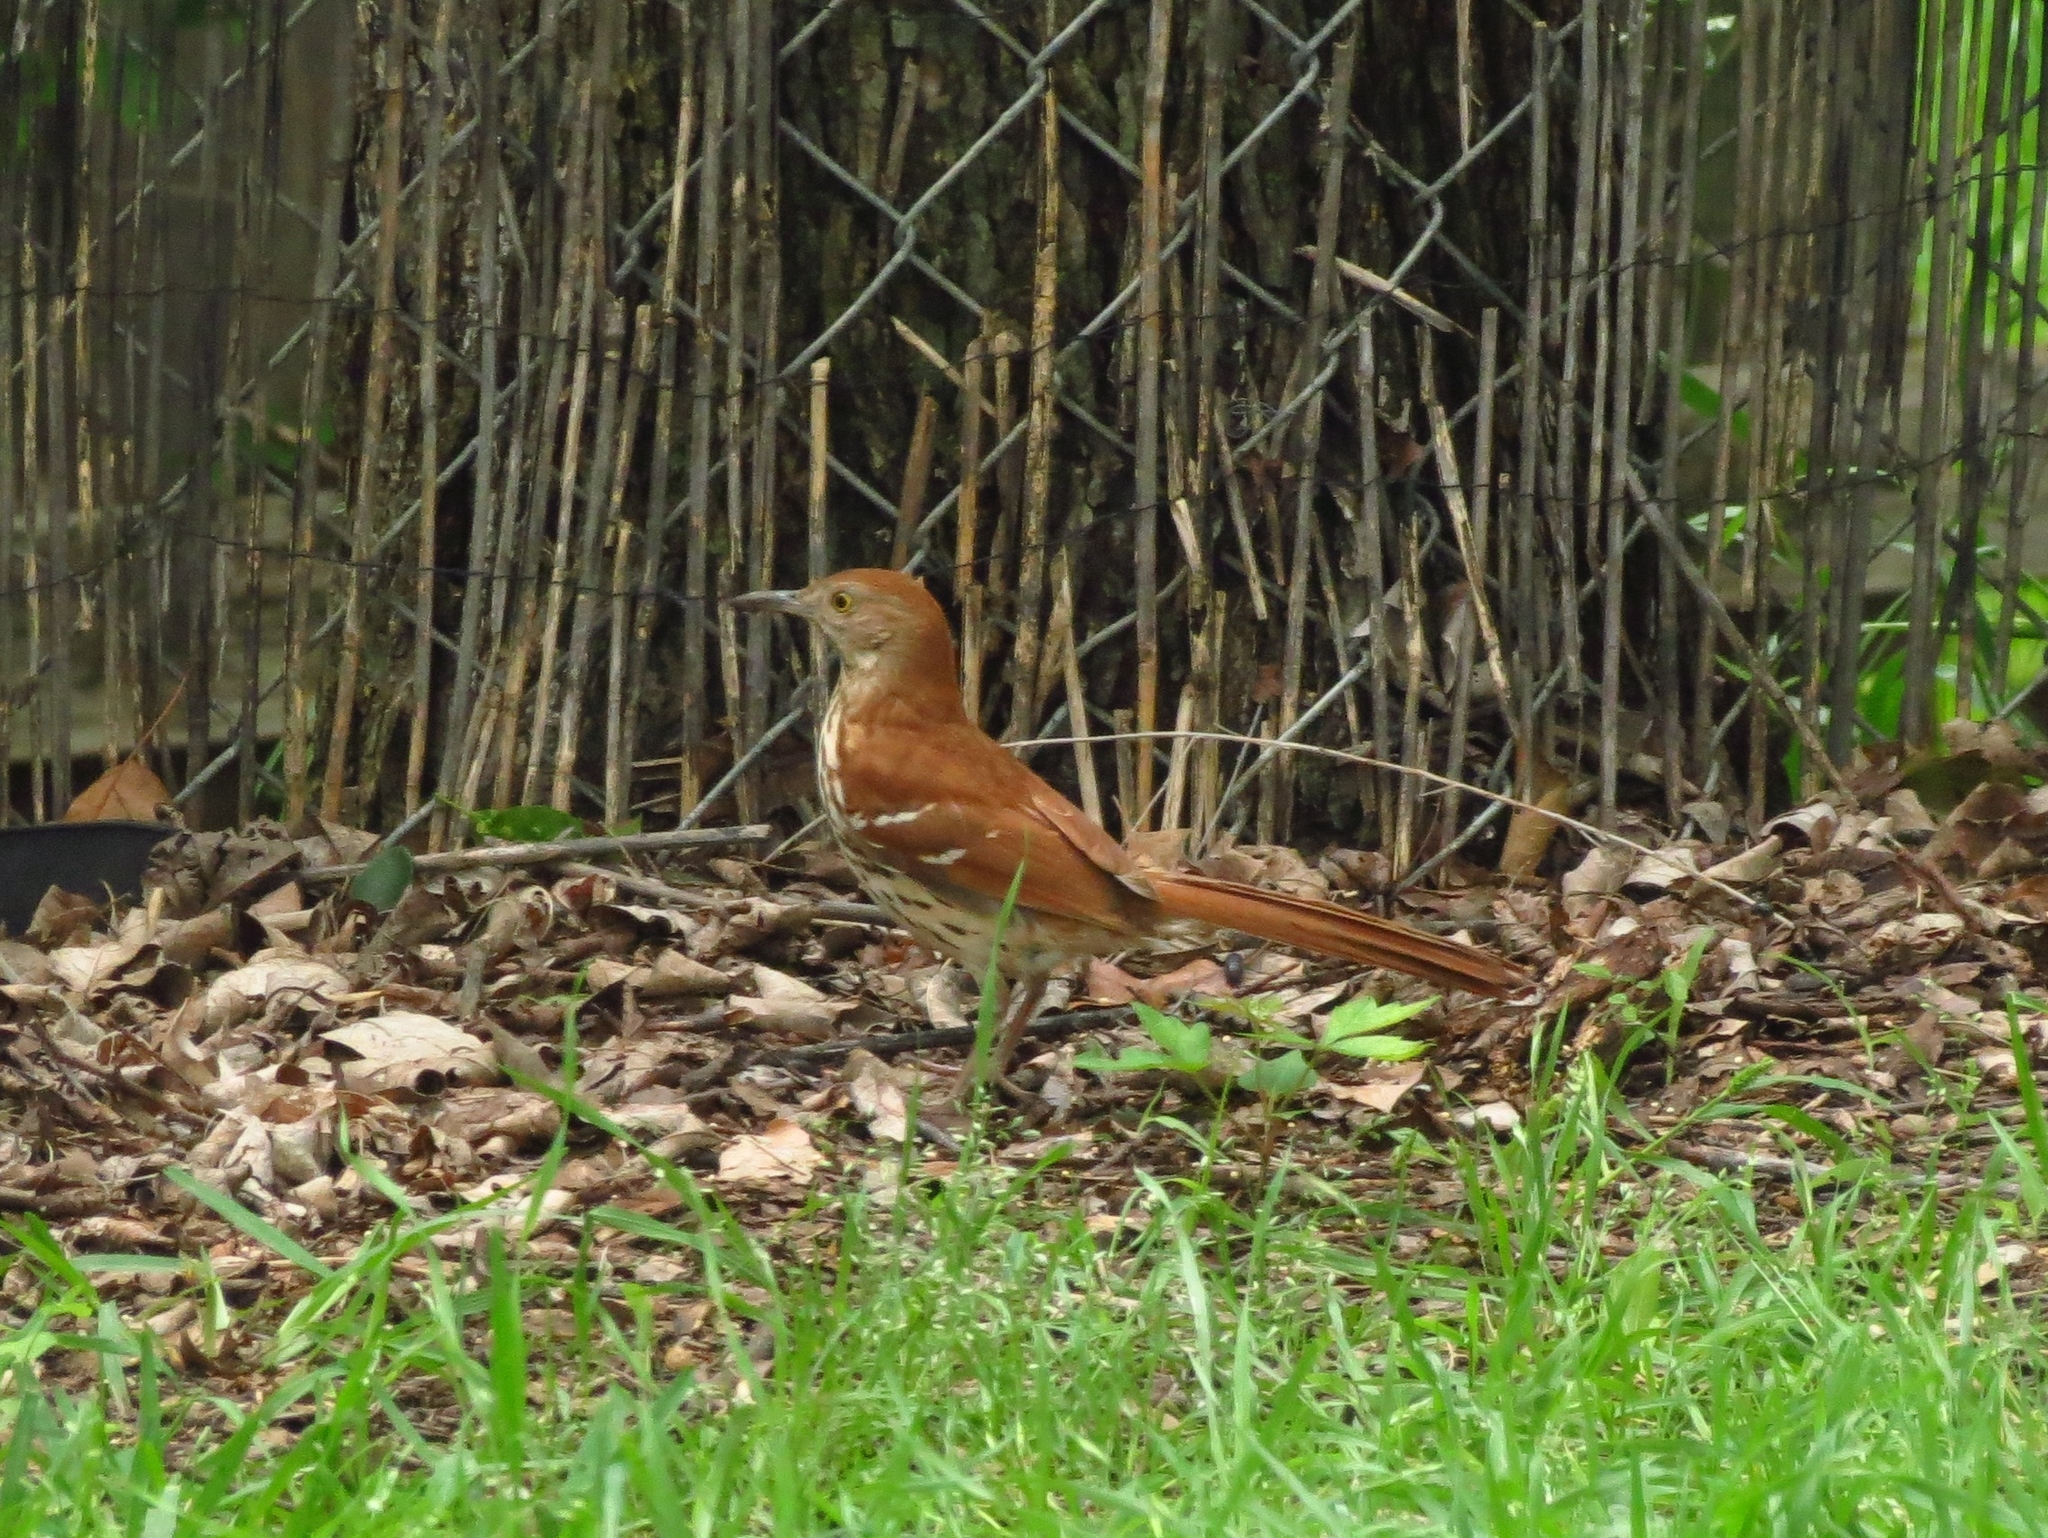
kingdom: Animalia
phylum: Chordata
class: Aves
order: Passeriformes
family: Mimidae
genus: Toxostoma
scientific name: Toxostoma rufum
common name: Brown thrasher
